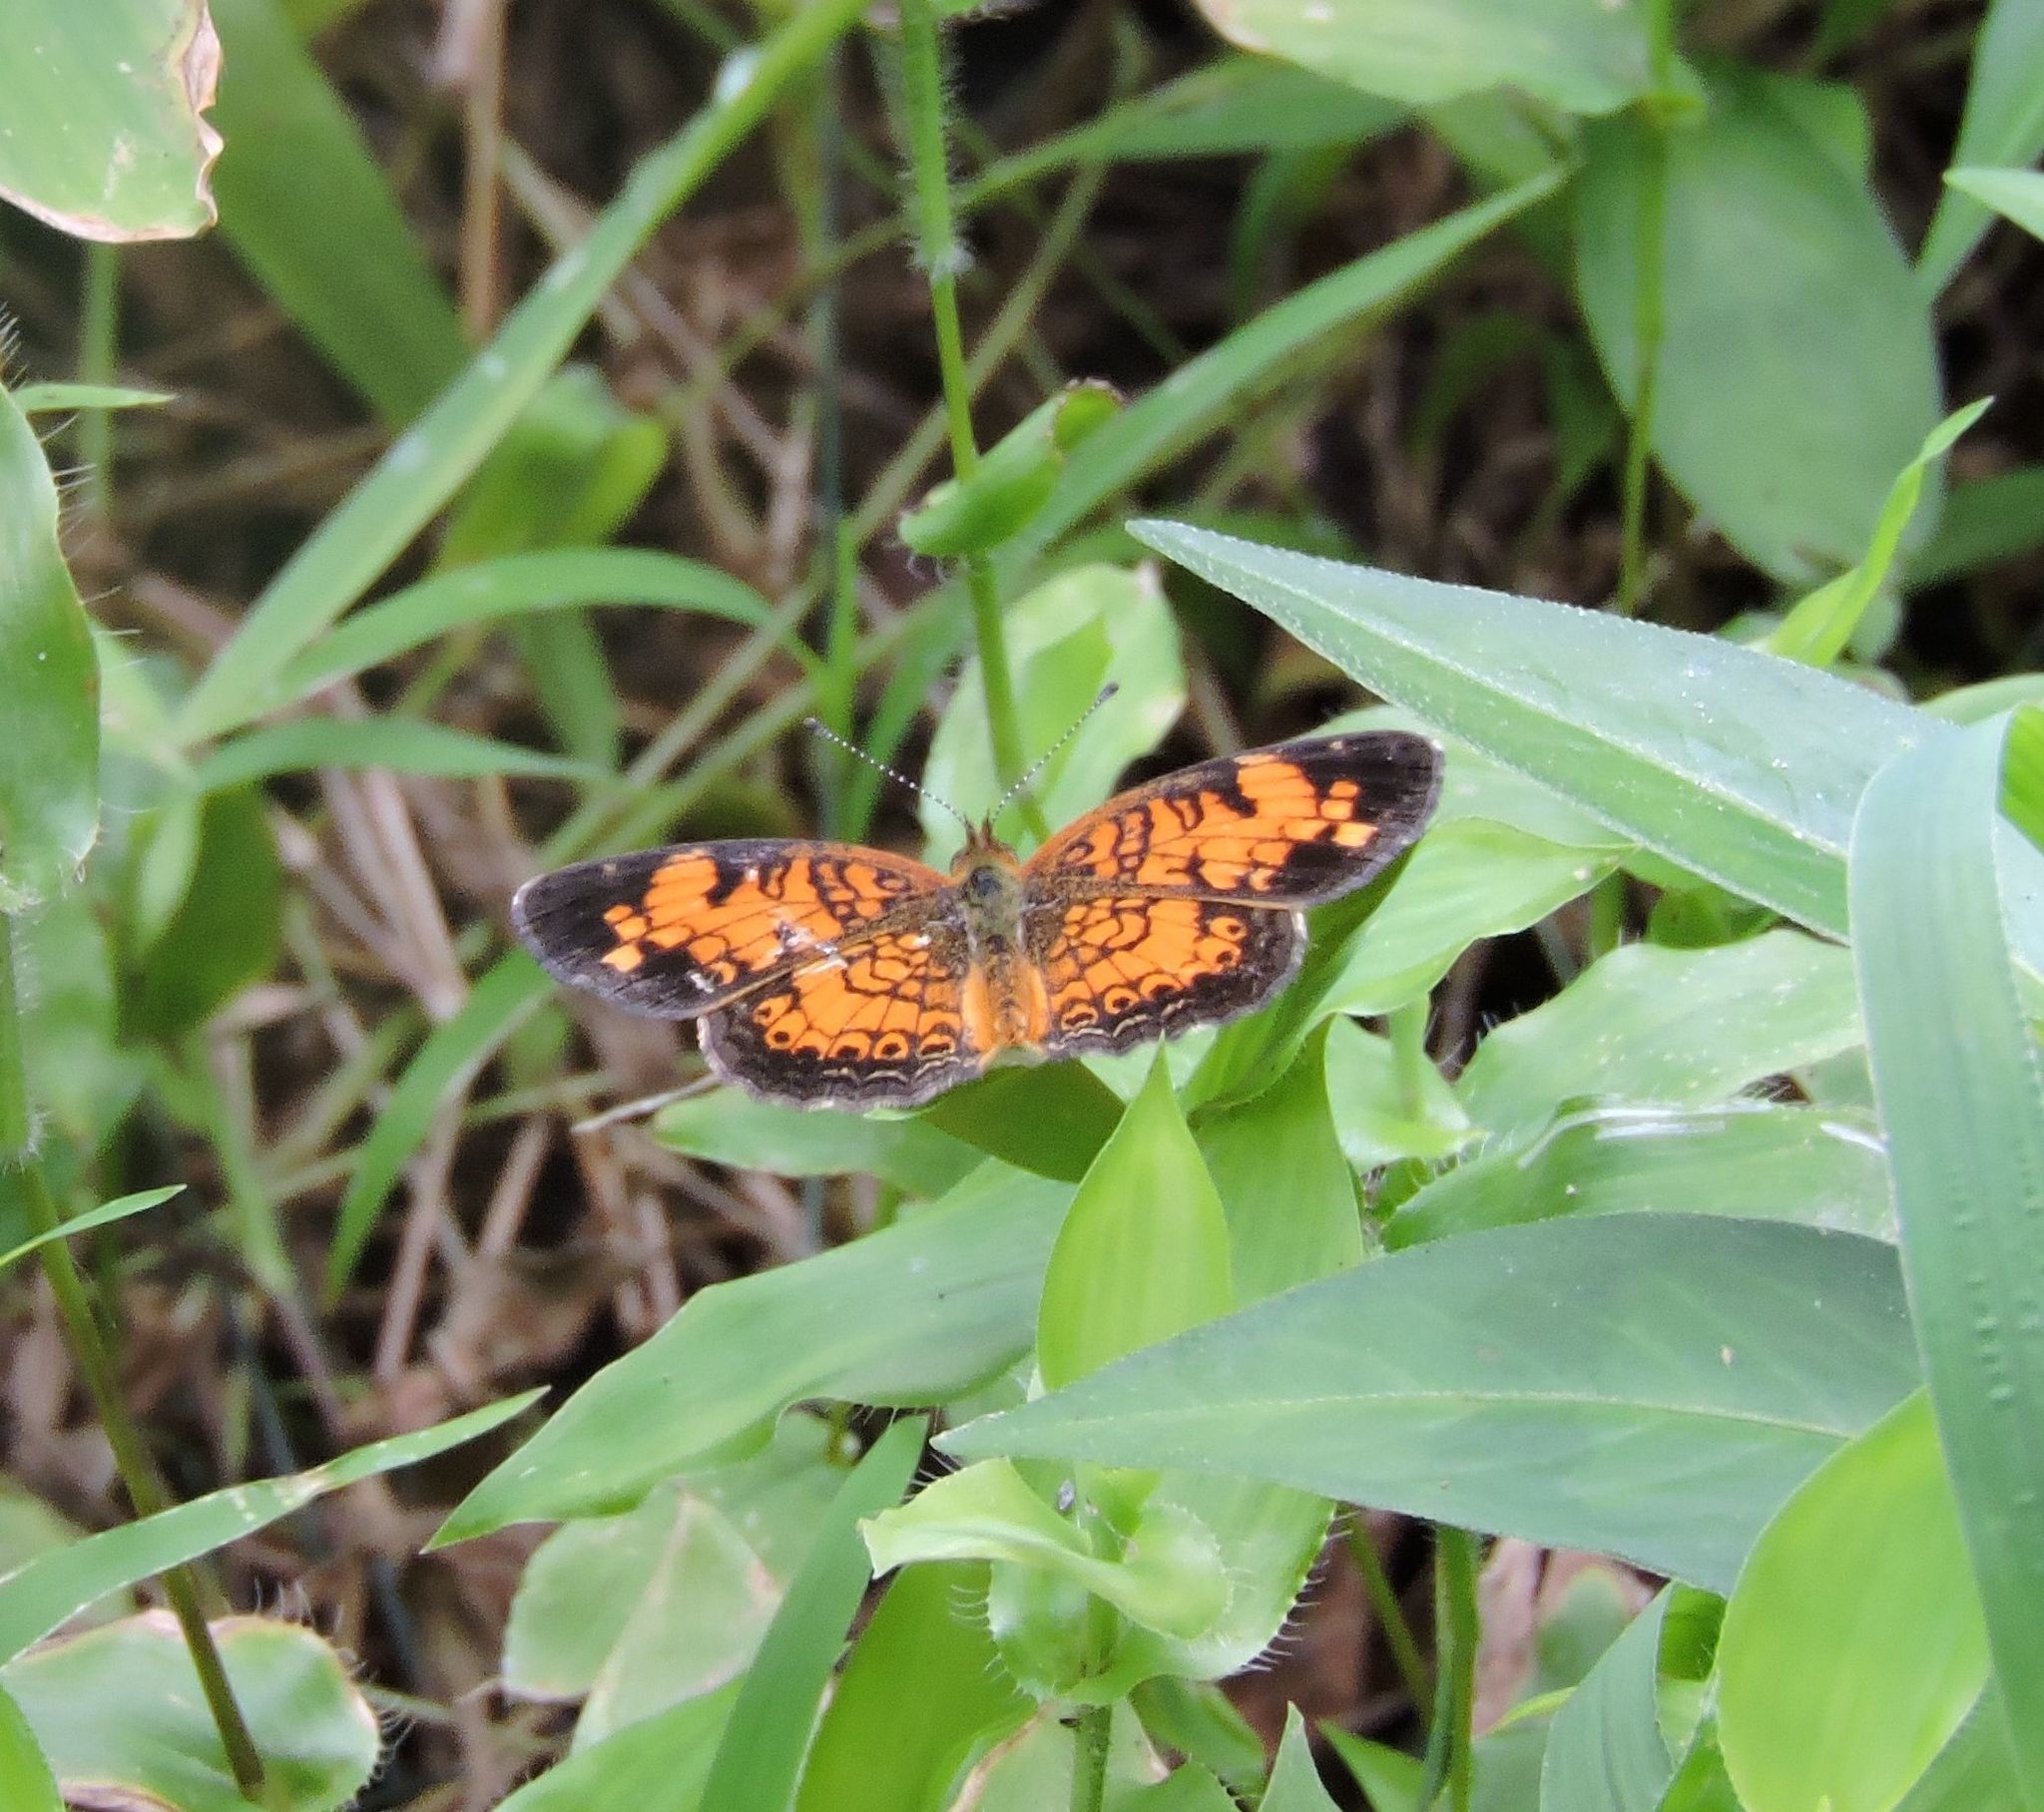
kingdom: Animalia
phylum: Arthropoda
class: Insecta
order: Lepidoptera
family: Nymphalidae
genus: Phyciodes
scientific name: Phyciodes tharos
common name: Pearl crescent
